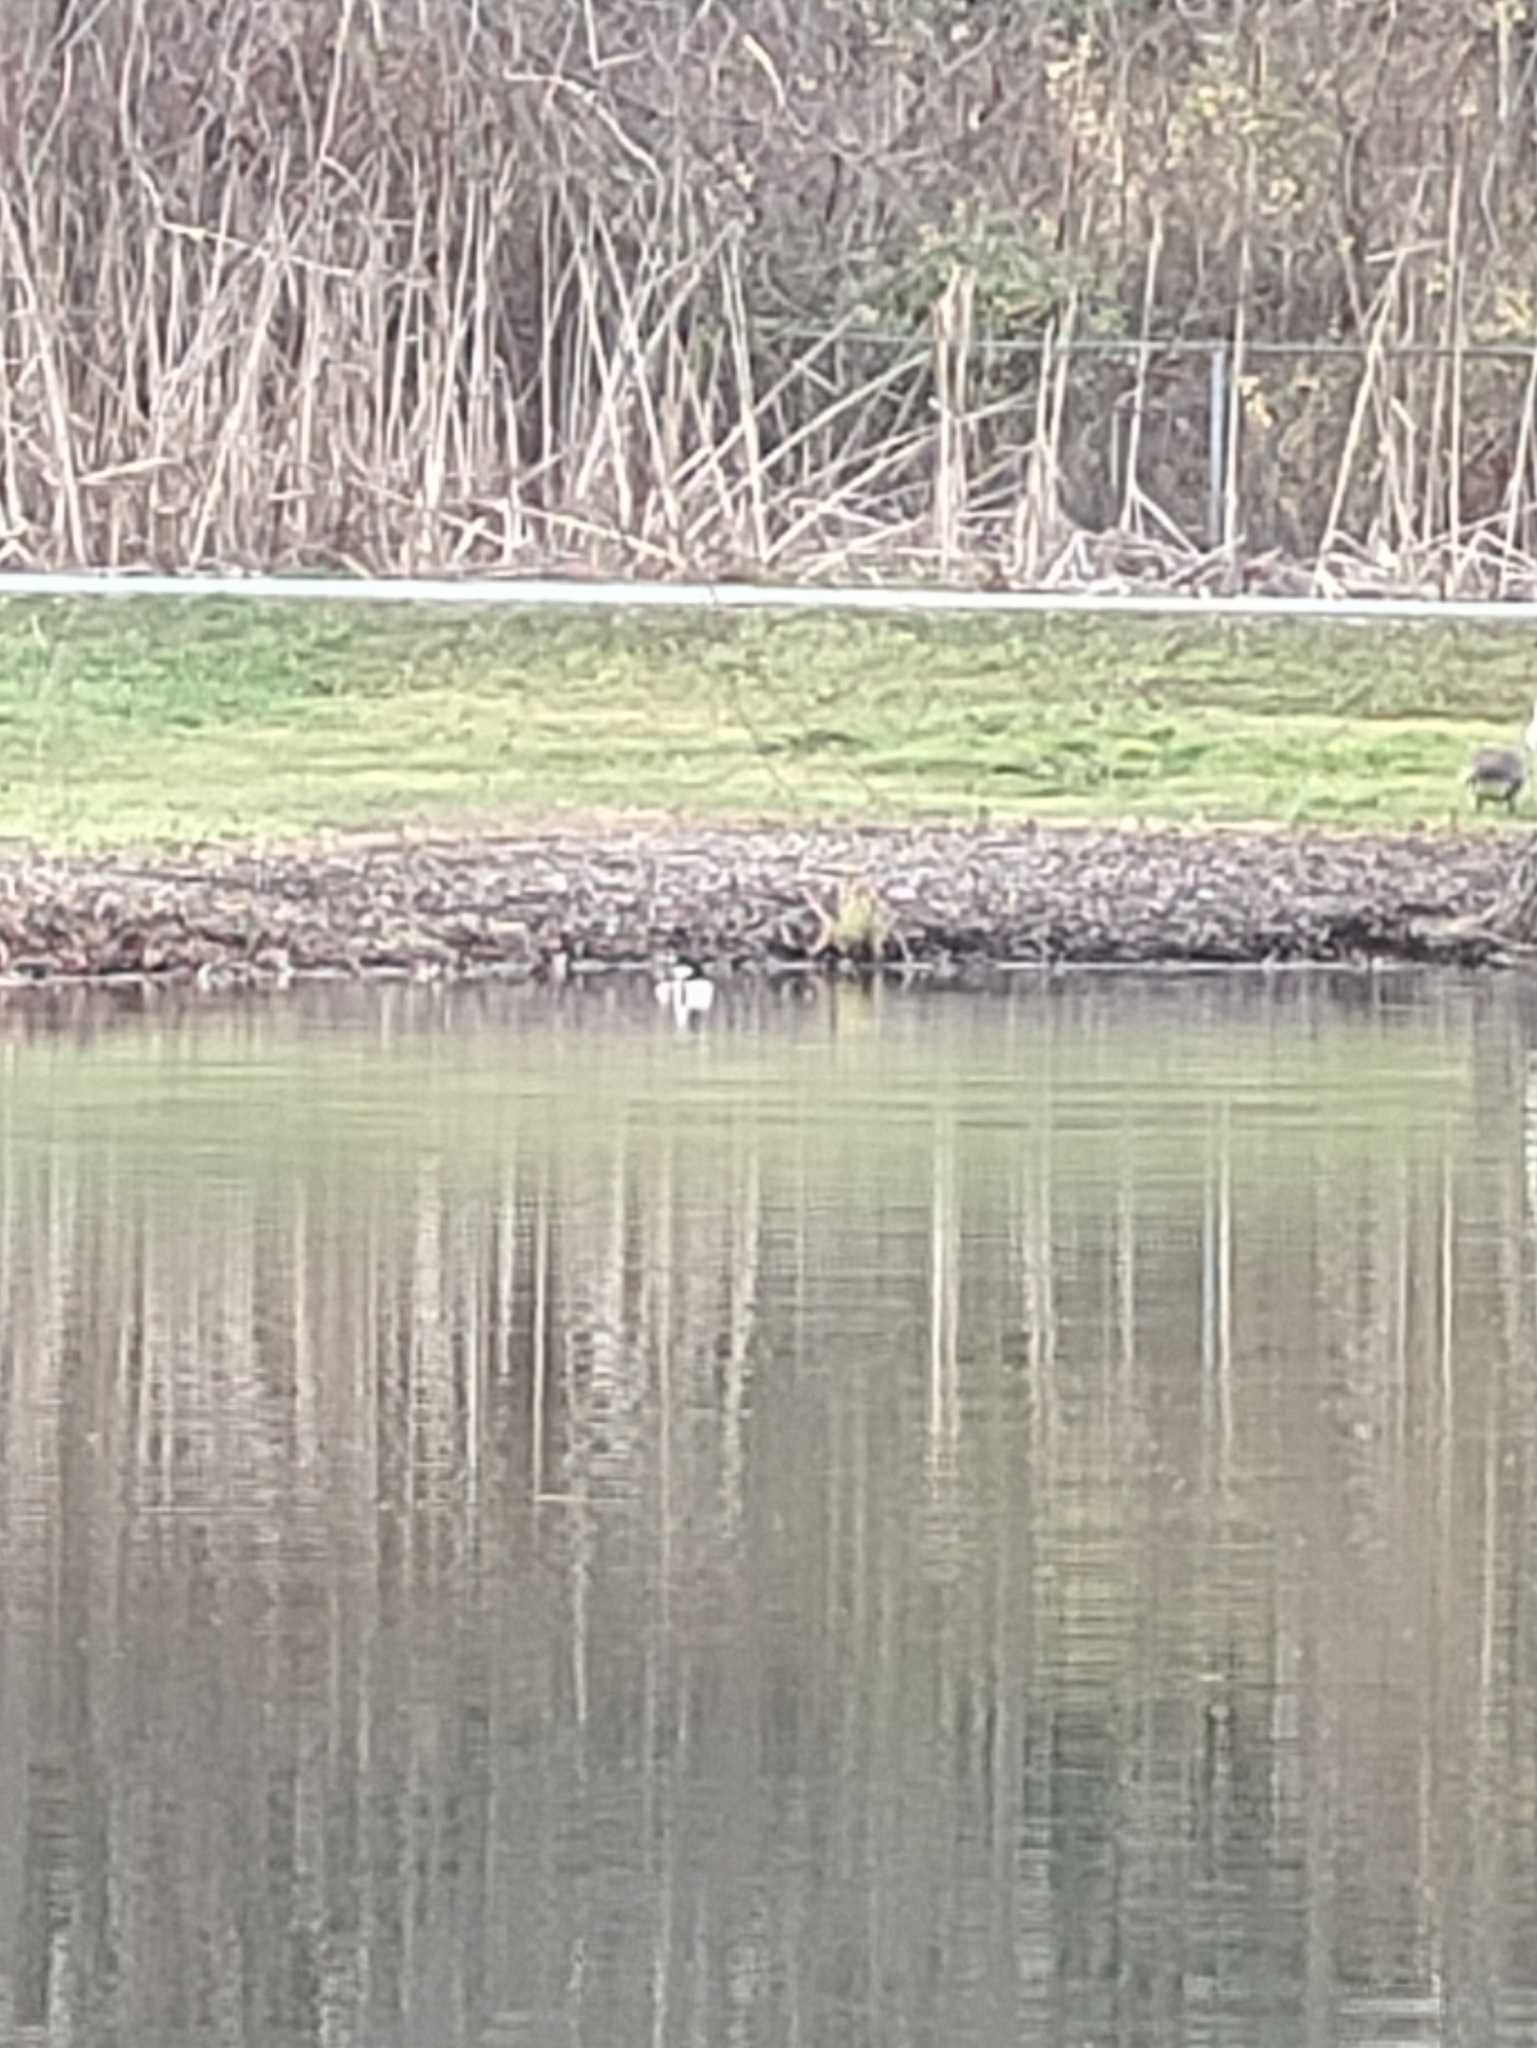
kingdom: Animalia
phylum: Chordata
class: Aves
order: Anseriformes
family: Anatidae
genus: Lophodytes
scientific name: Lophodytes cucullatus
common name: Hooded merganser
